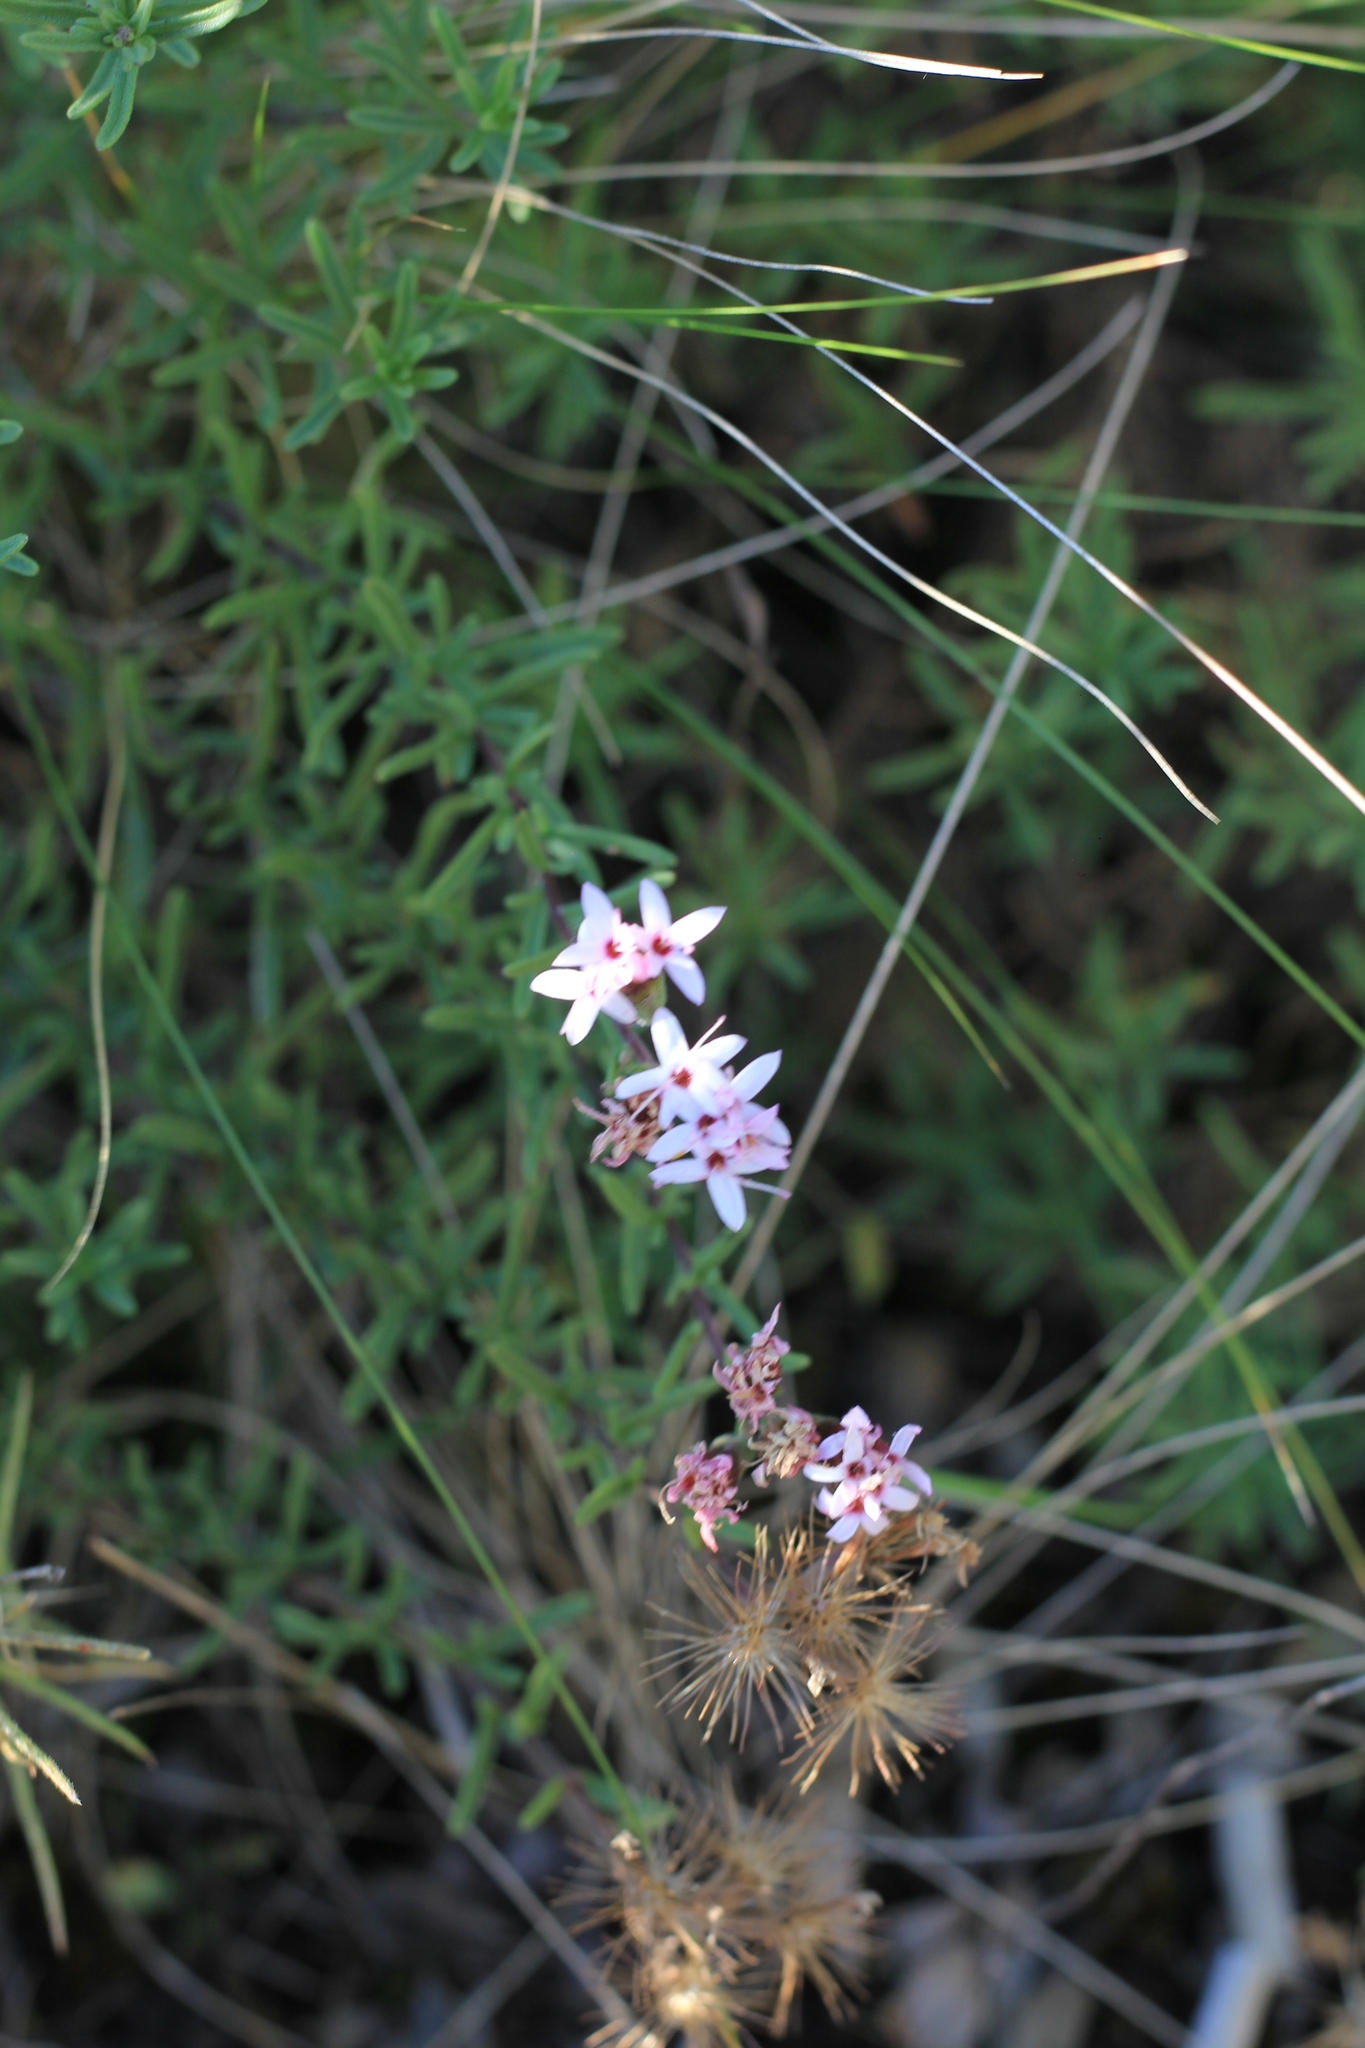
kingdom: Plantae
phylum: Tracheophyta
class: Magnoliopsida
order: Asterales
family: Asteraceae
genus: Stevia
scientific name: Stevia satureifolia
